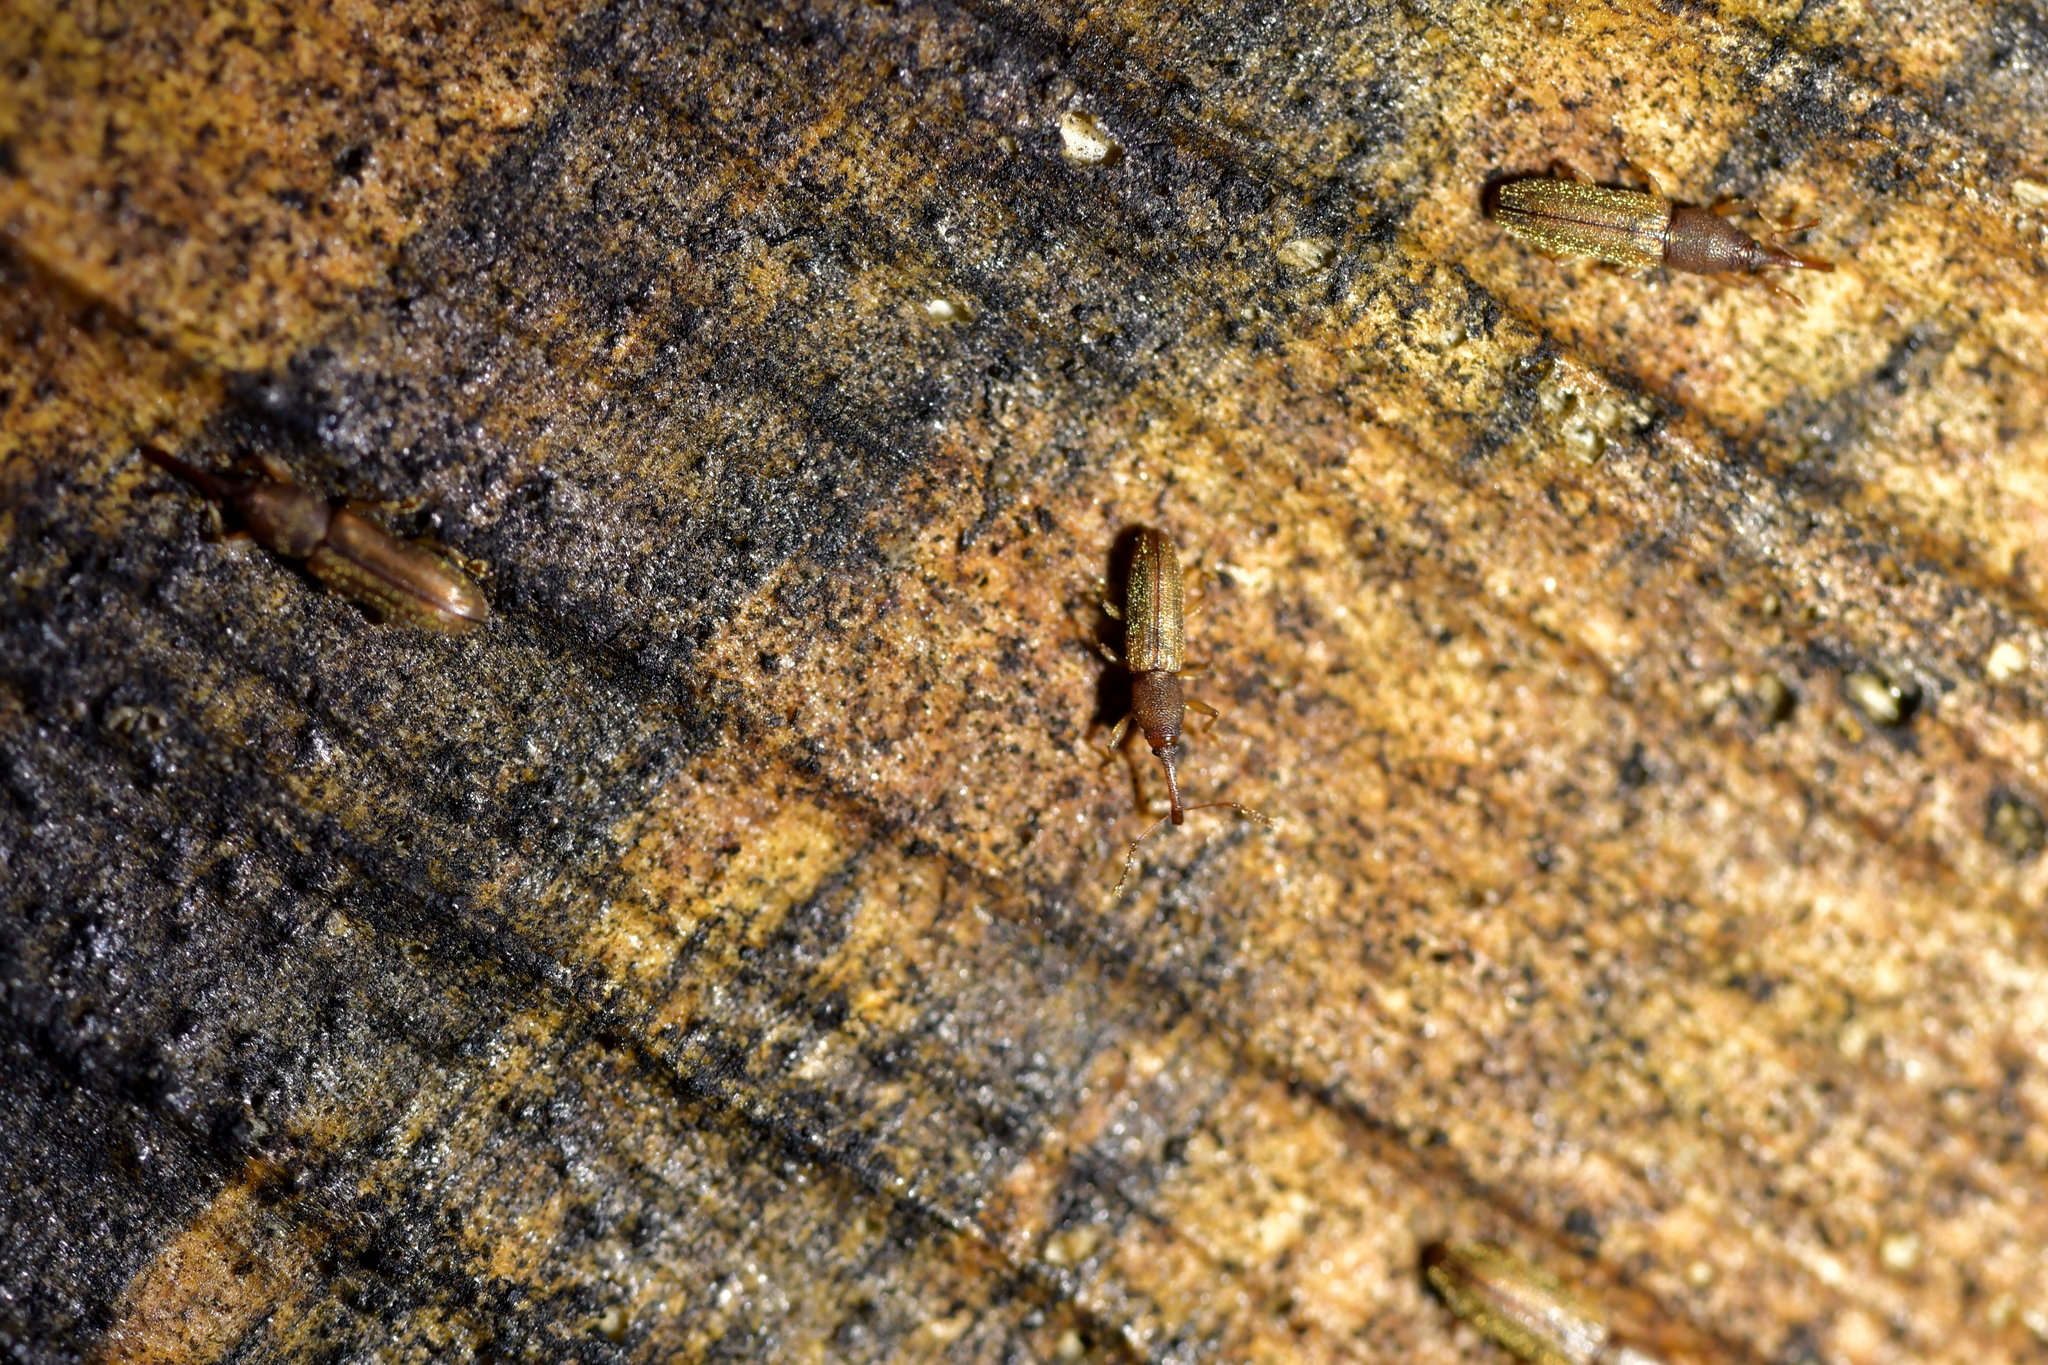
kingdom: Animalia
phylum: Arthropoda
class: Insecta
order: Coleoptera
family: Curculionidae
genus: Arecocryptus
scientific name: Arecocryptus bellus
